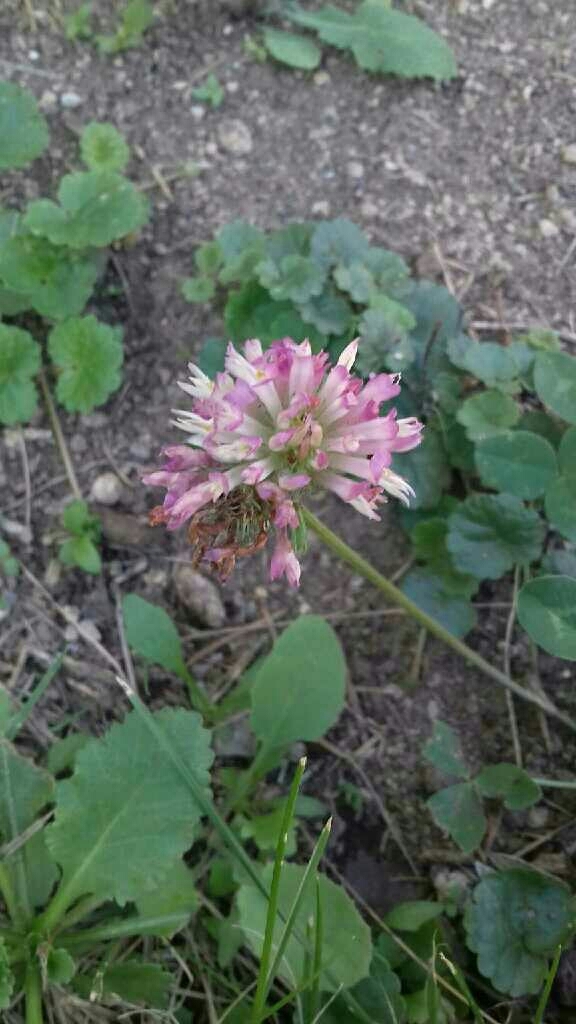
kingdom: Plantae
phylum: Tracheophyta
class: Magnoliopsida
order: Fabales
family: Fabaceae
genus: Trifolium
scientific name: Trifolium pratense
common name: Red clover
